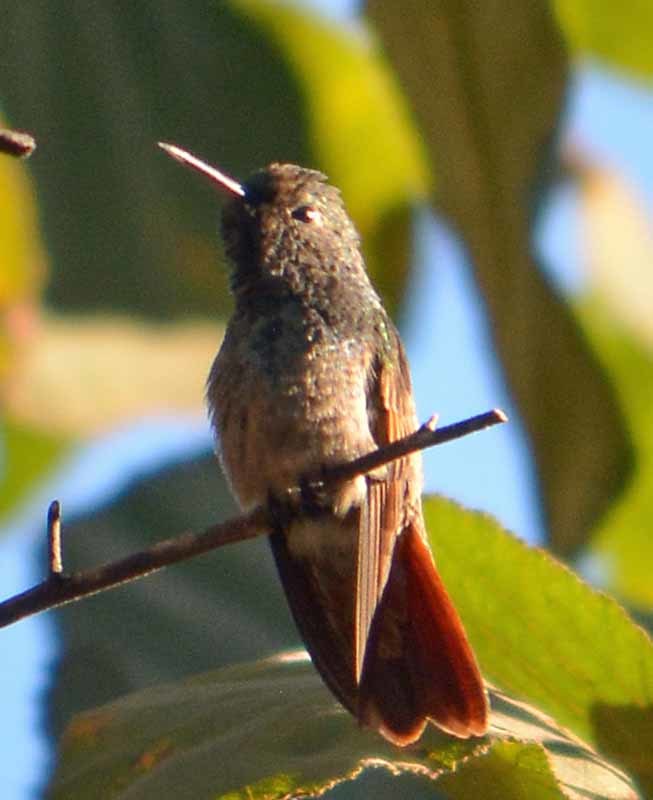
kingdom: Animalia
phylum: Chordata
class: Aves
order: Apodiformes
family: Trochilidae
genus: Saucerottia
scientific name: Saucerottia beryllina
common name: Berylline hummingbird
